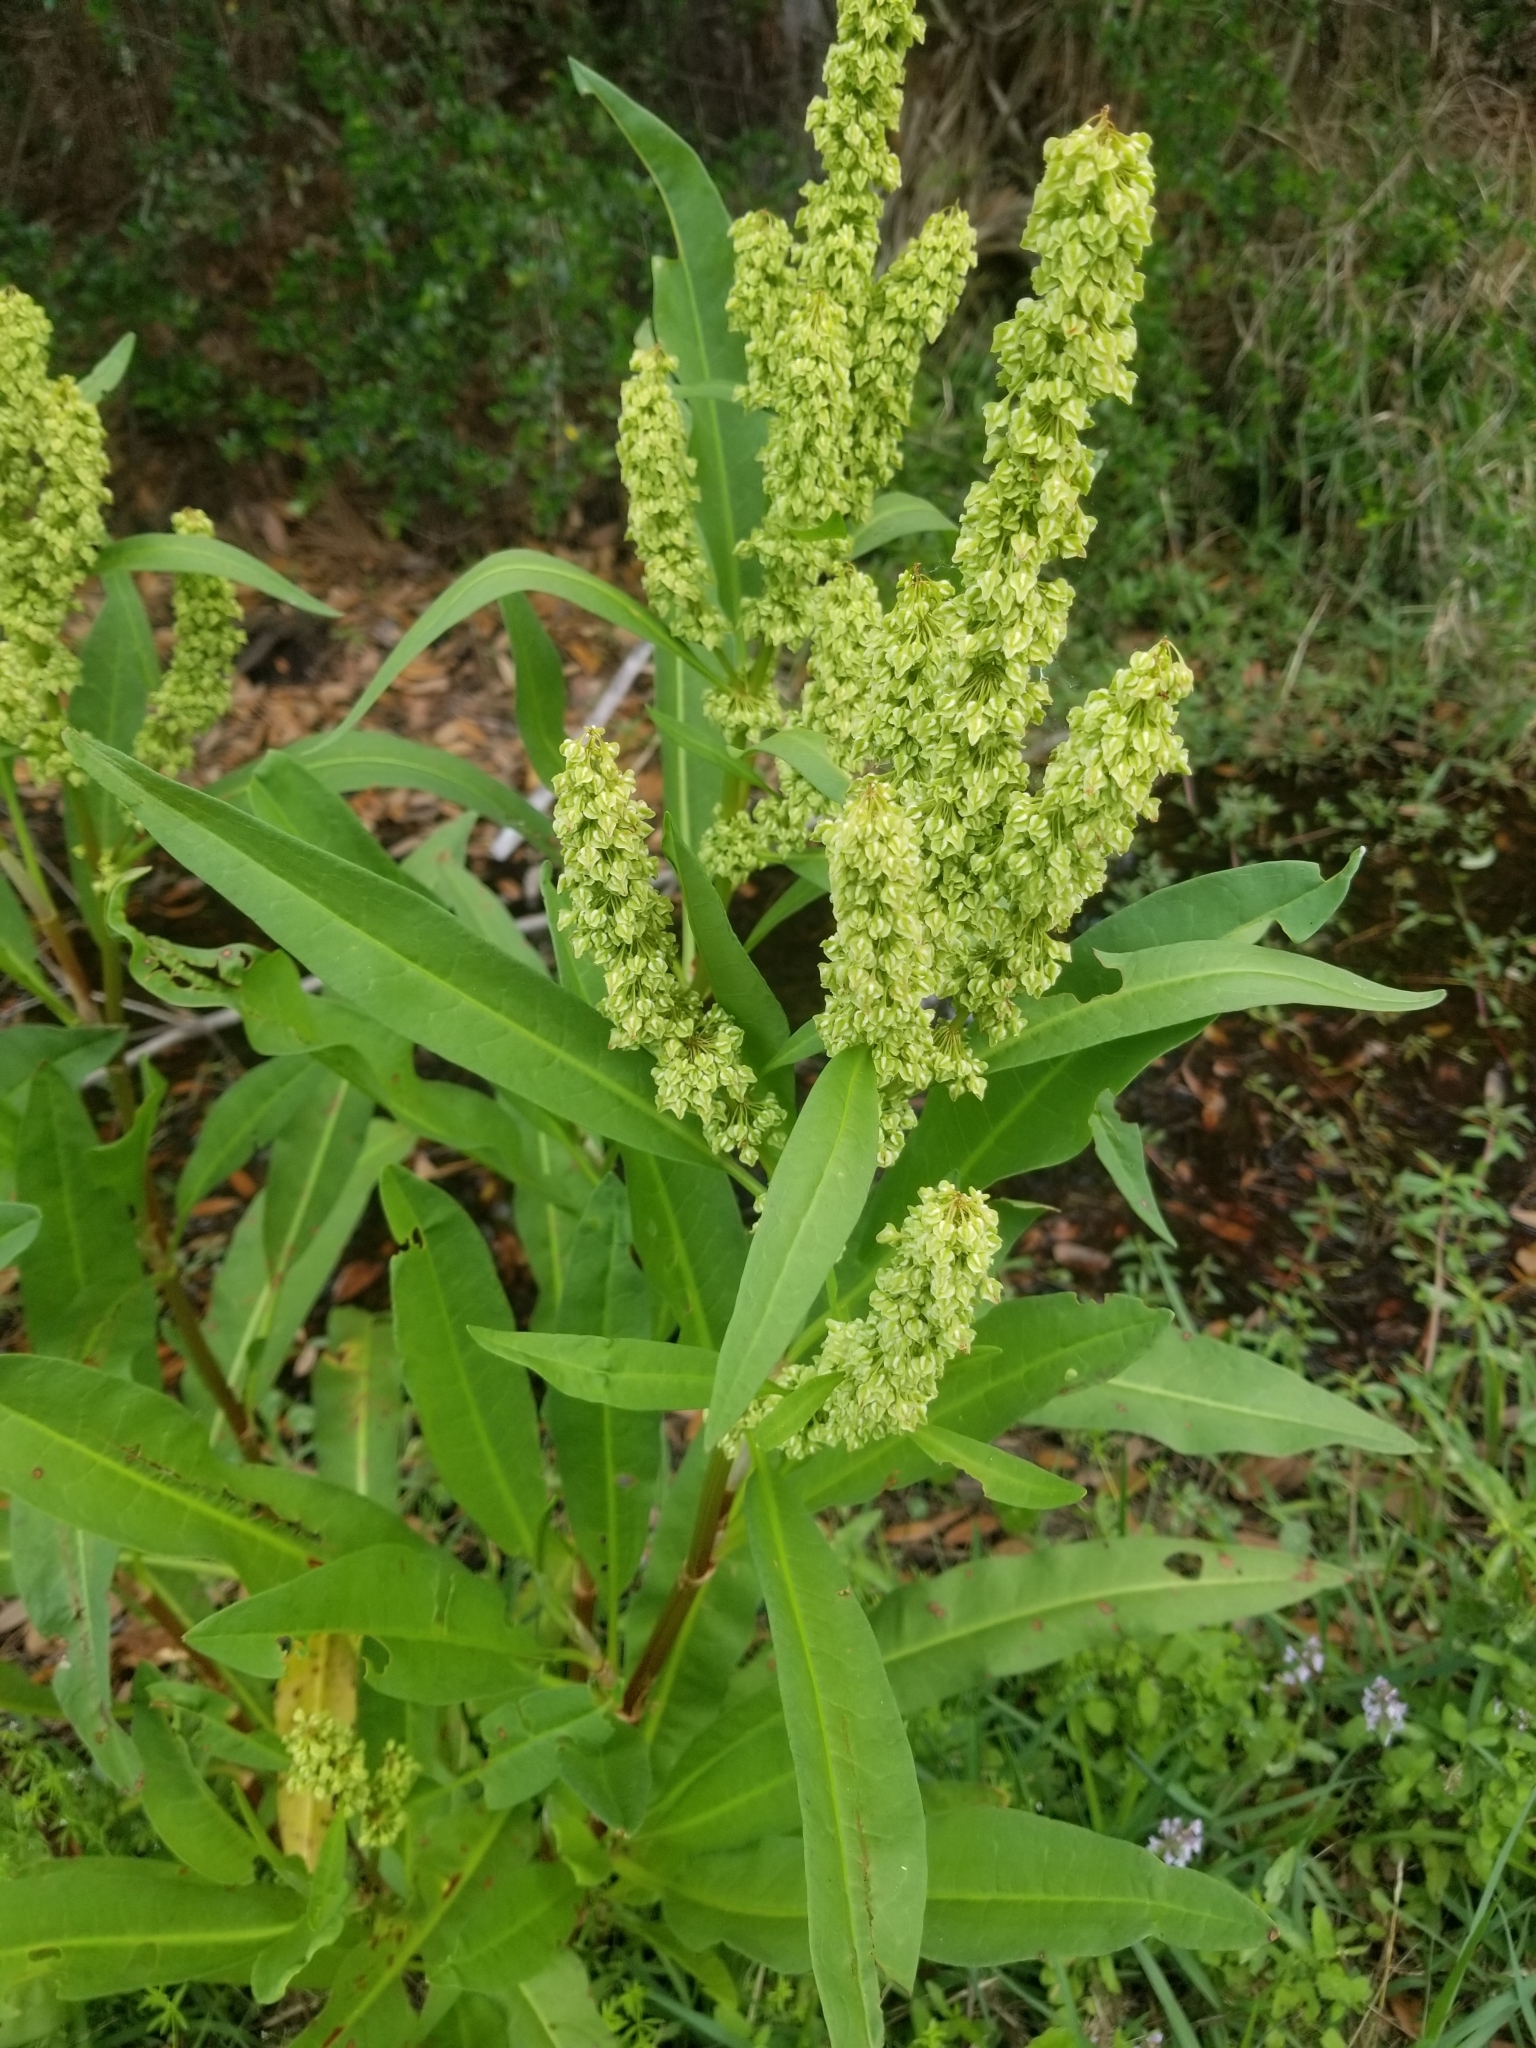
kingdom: Plantae
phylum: Tracheophyta
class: Magnoliopsida
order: Caryophyllales
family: Polygonaceae
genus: Rumex
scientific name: Rumex verticillatus
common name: Swamp dock
